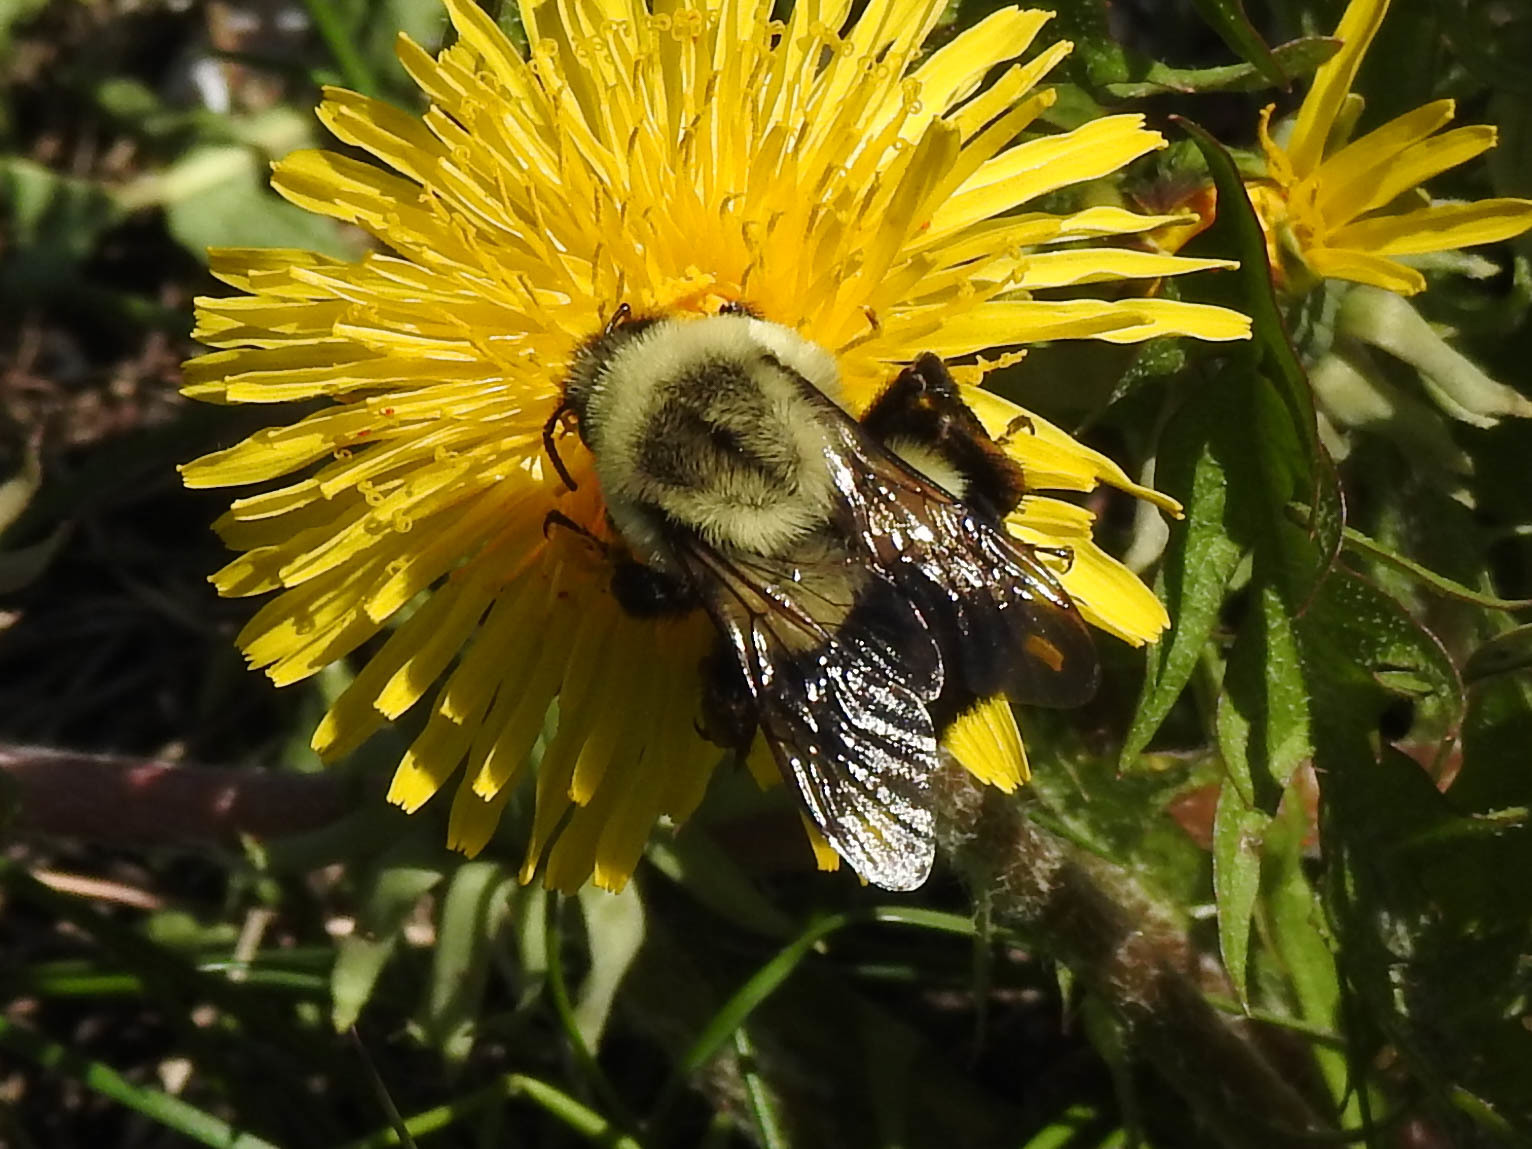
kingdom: Animalia
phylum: Arthropoda
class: Insecta
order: Hymenoptera
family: Apidae
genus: Bombus
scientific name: Bombus impatiens
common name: Common eastern bumble bee
